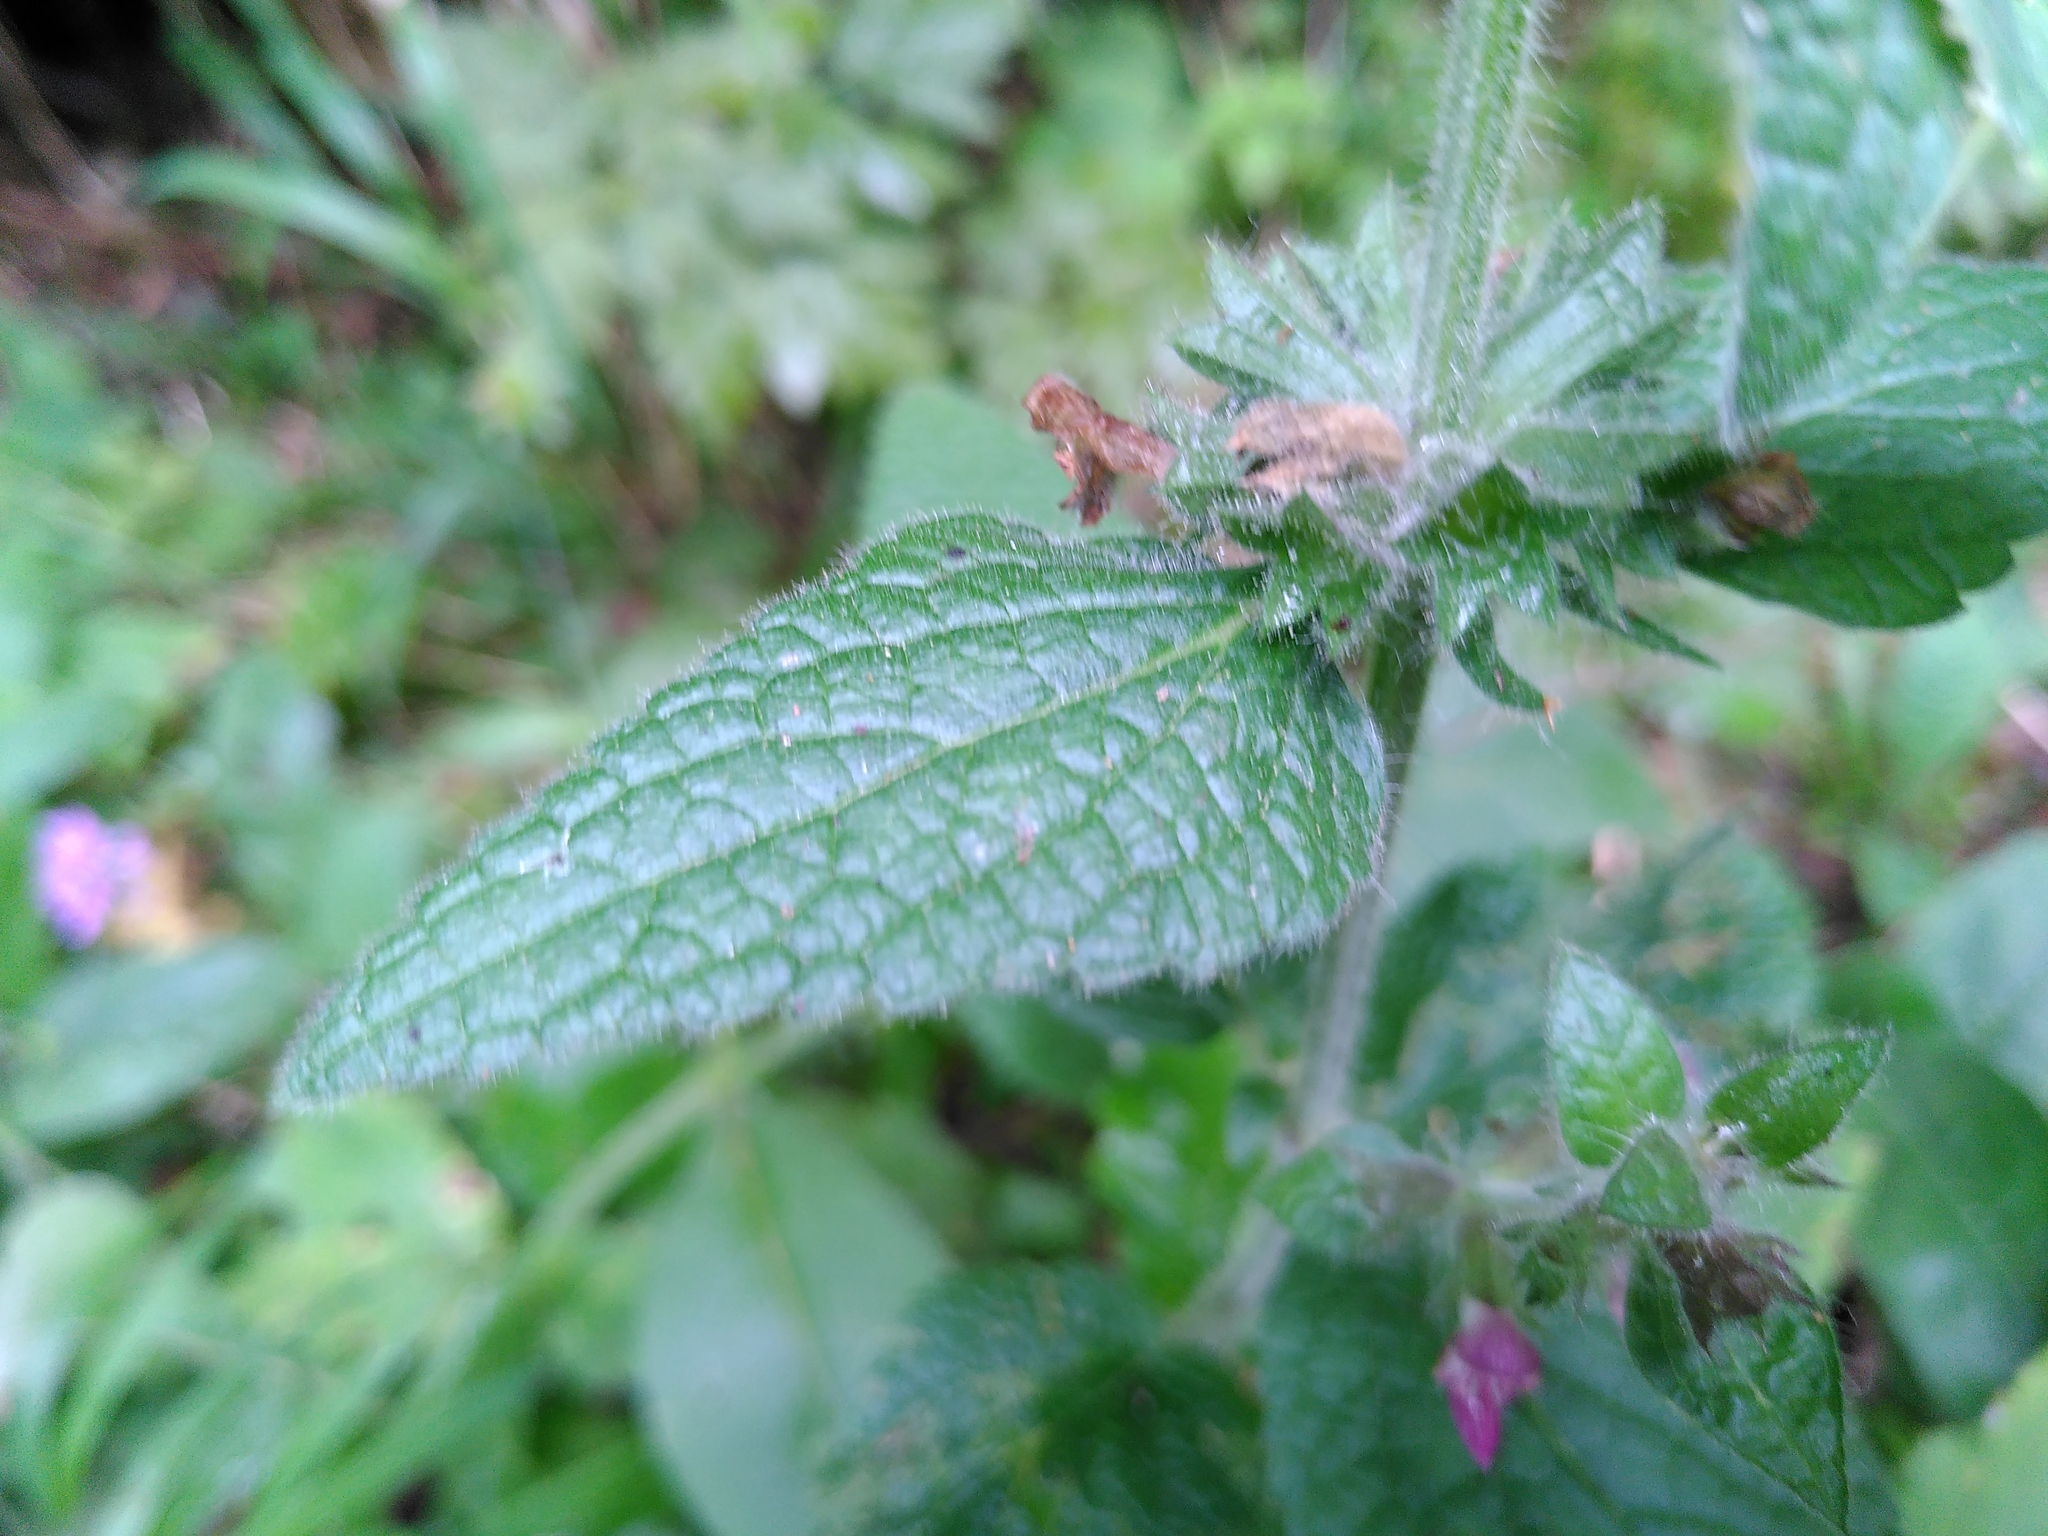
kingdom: Plantae
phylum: Tracheophyta
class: Magnoliopsida
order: Lamiales
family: Lamiaceae
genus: Stachys
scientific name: Stachys sylvatica
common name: Hedge woundwort
